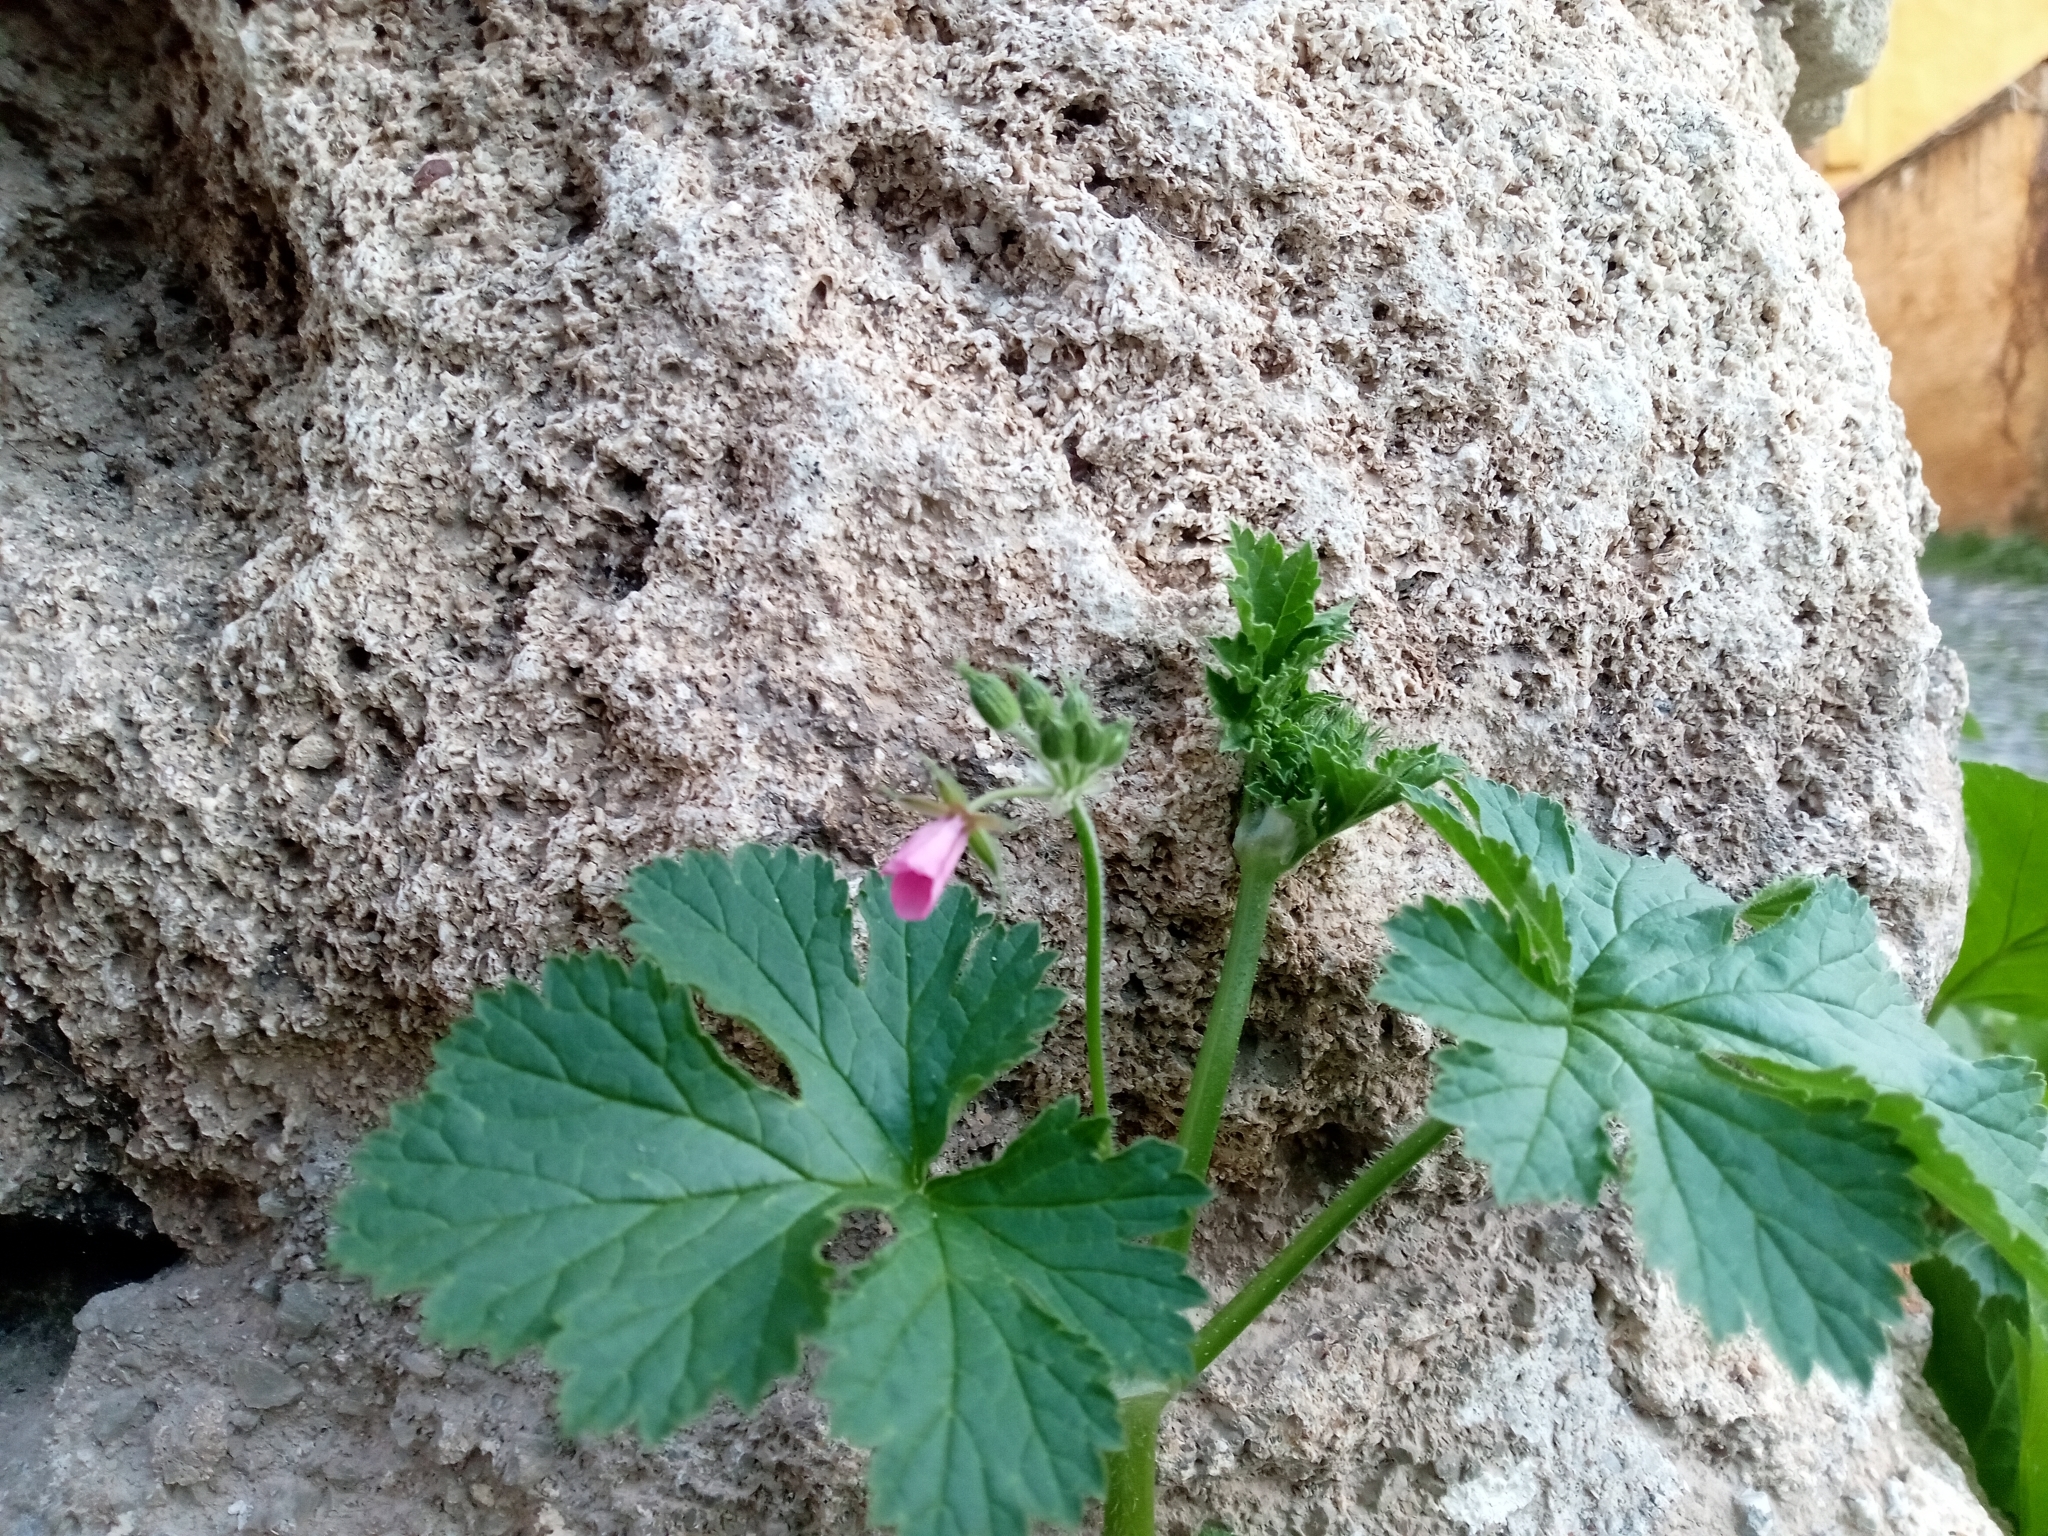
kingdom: Plantae
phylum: Tracheophyta
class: Magnoliopsida
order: Geraniales
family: Geraniaceae
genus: Erodium
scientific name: Erodium chium
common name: Three-lobed stork's-bill
